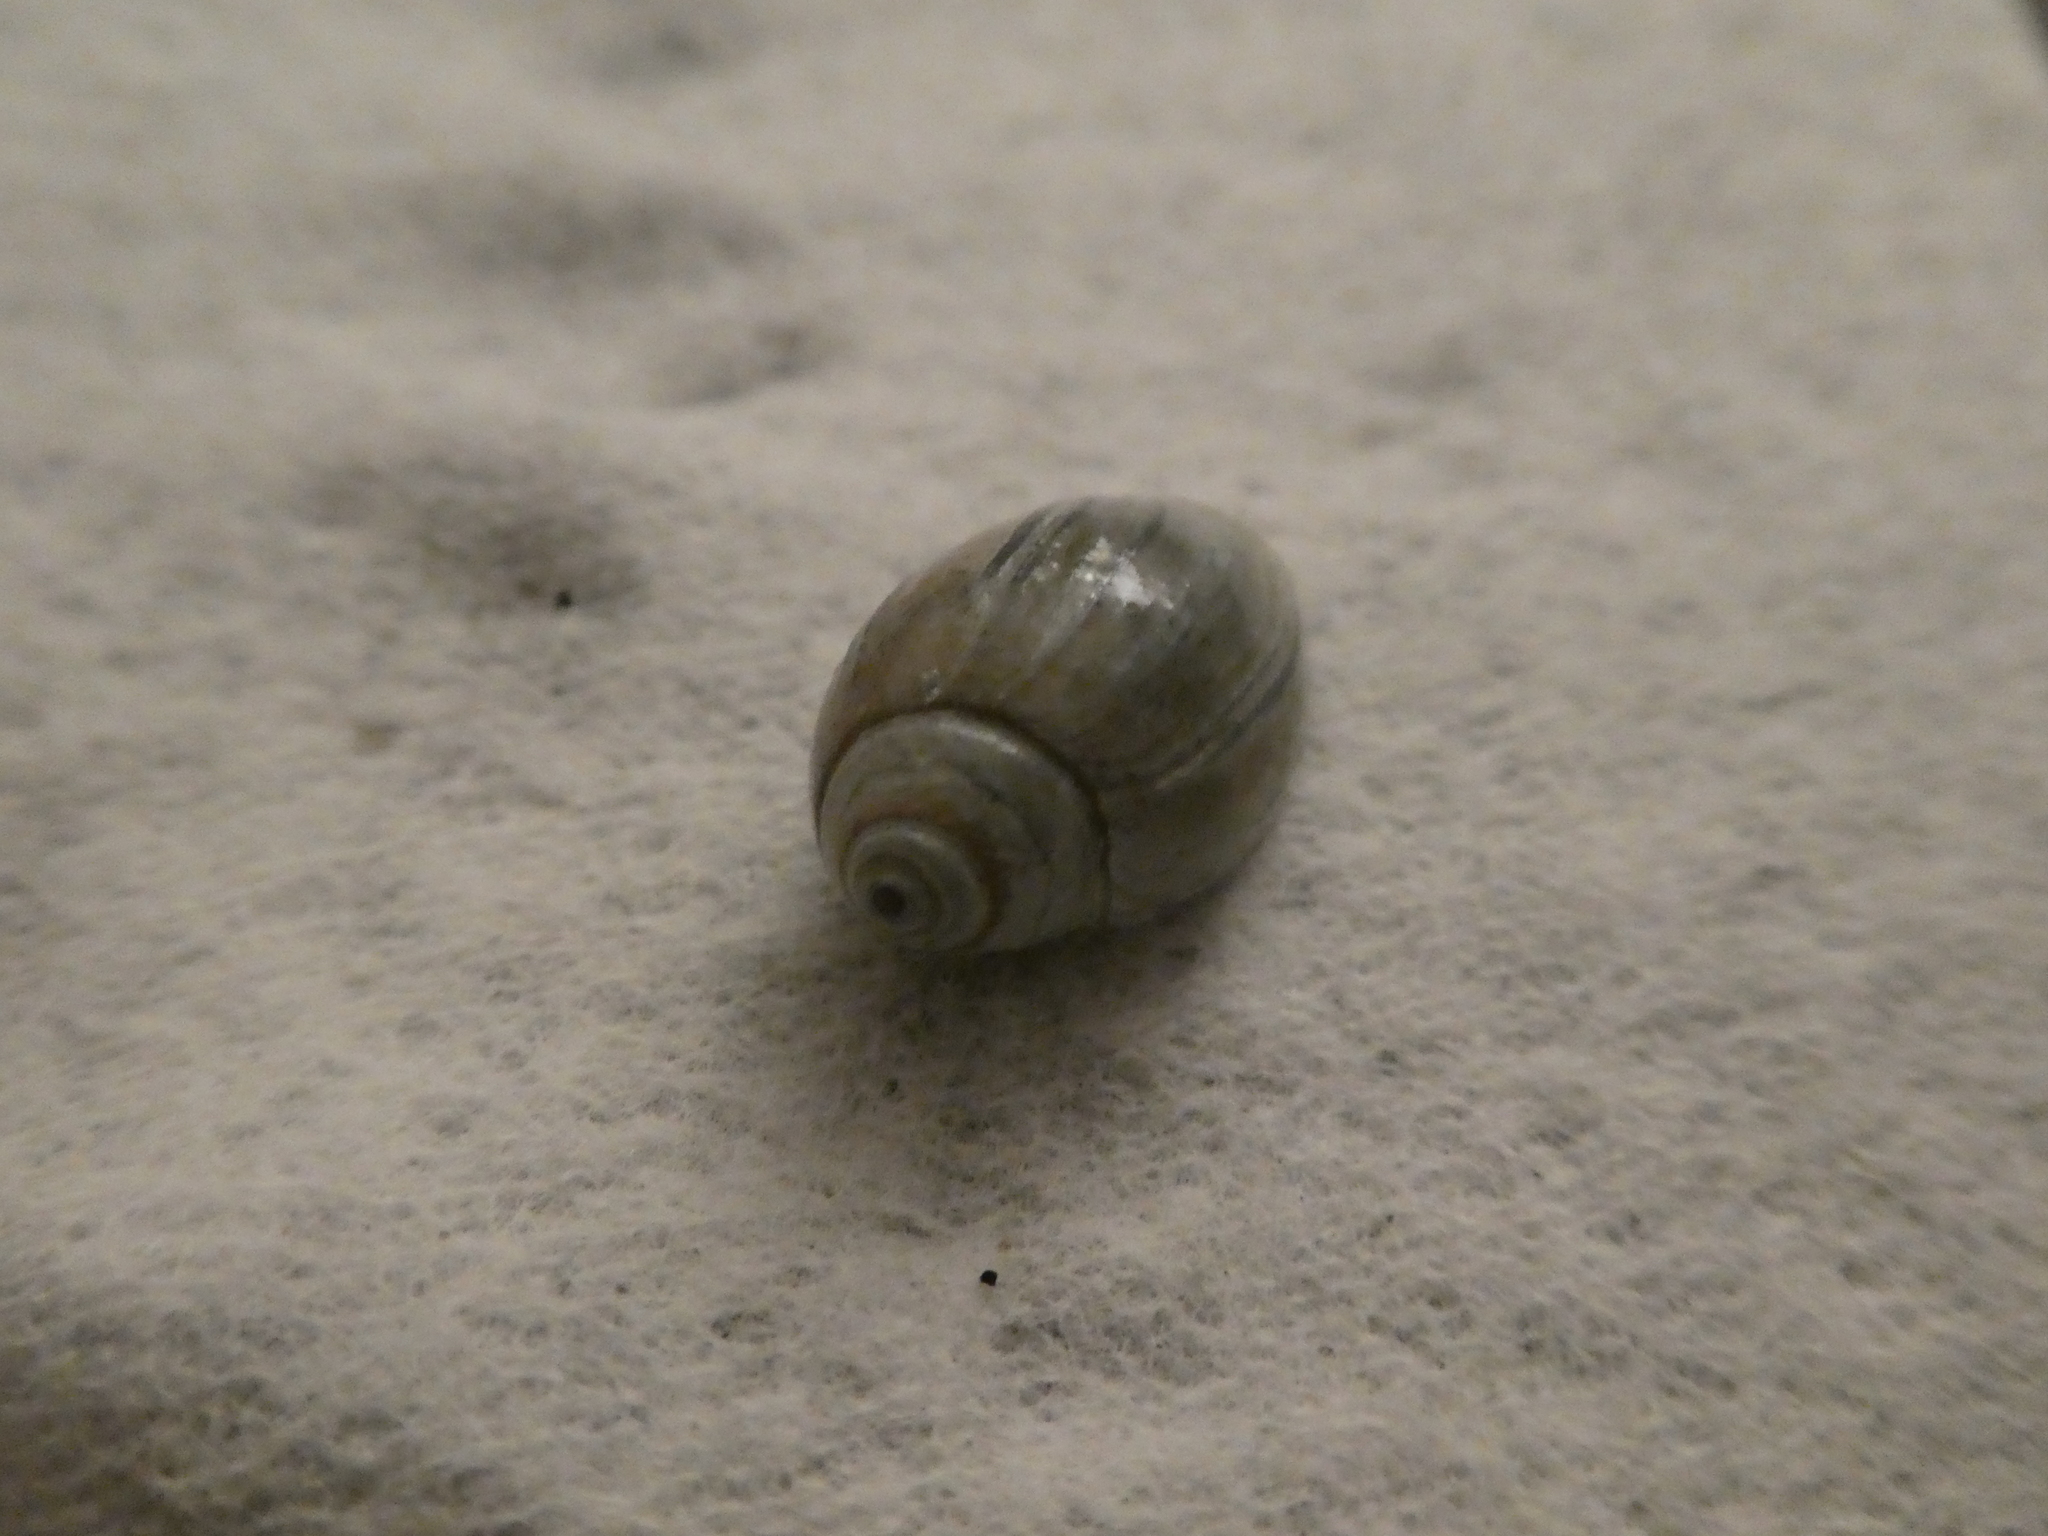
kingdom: Animalia
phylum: Mollusca
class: Gastropoda
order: Neogastropoda
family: Olividae
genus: Callianax
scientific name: Callianax biplicata
